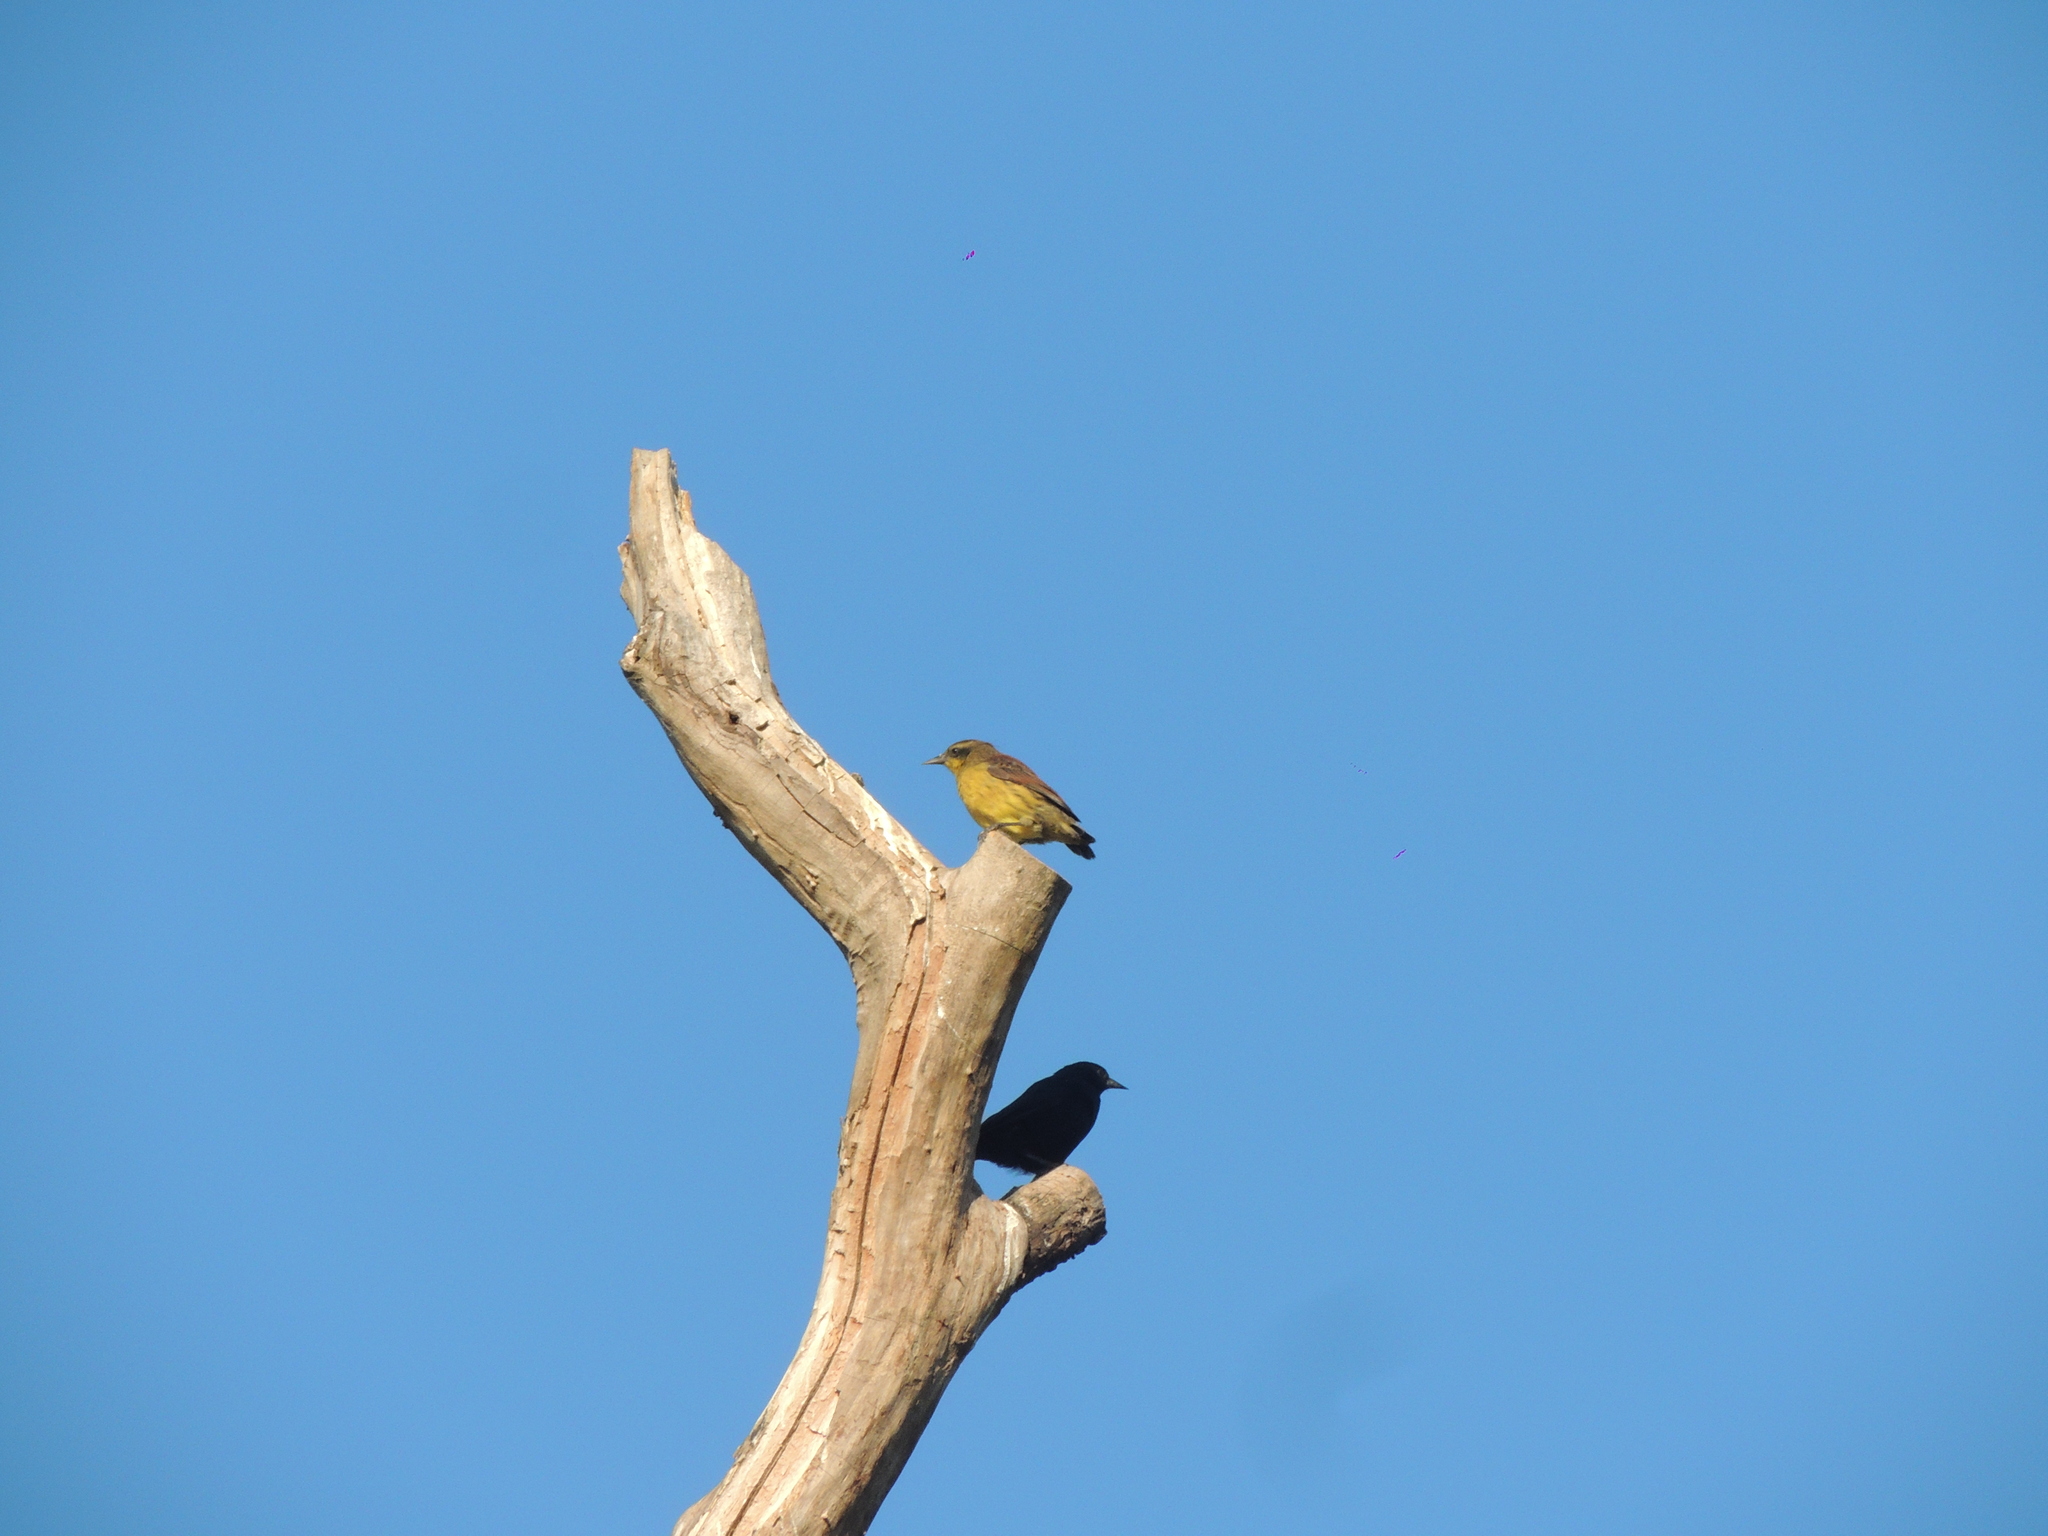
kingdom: Animalia
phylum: Chordata
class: Aves
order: Passeriformes
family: Icteridae
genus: Agelasticus
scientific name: Agelasticus cyanopus
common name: Unicolored blackbird
